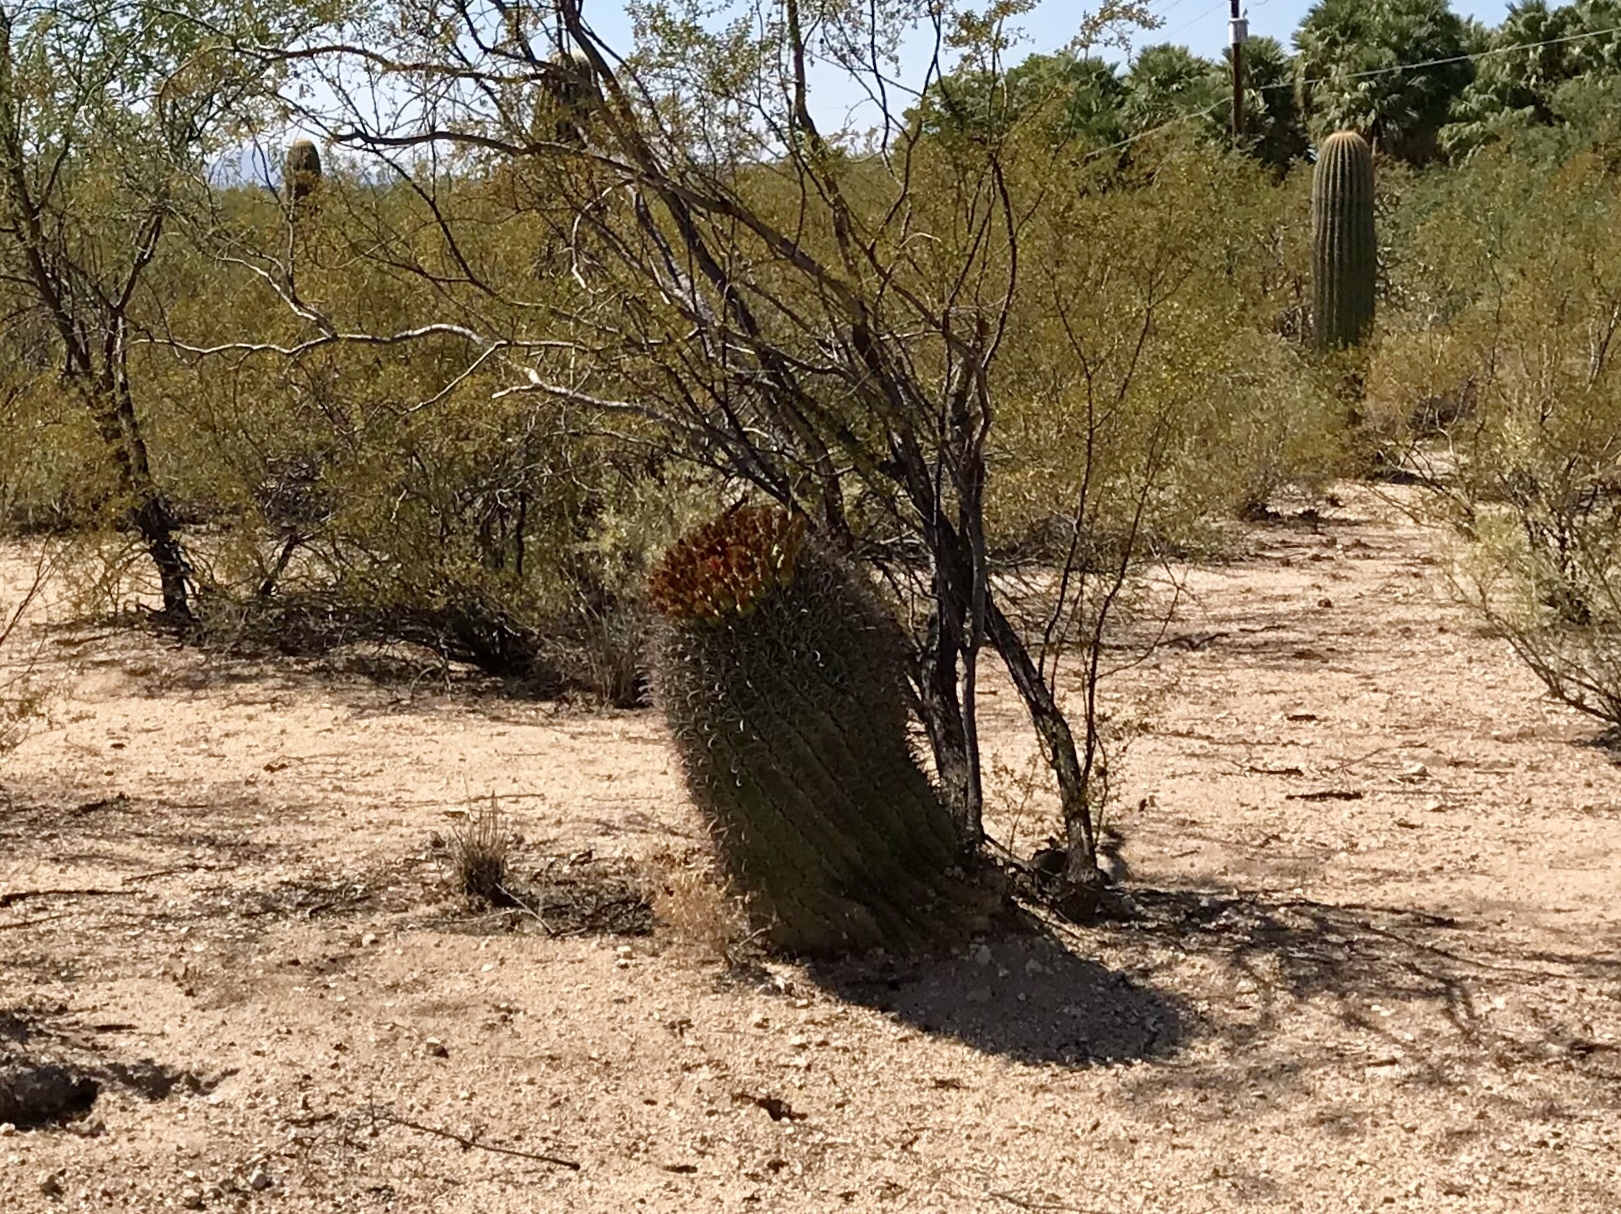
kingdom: Plantae
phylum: Tracheophyta
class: Magnoliopsida
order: Caryophyllales
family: Cactaceae
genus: Ferocactus
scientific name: Ferocactus wislizeni
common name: Candy barrel cactus
